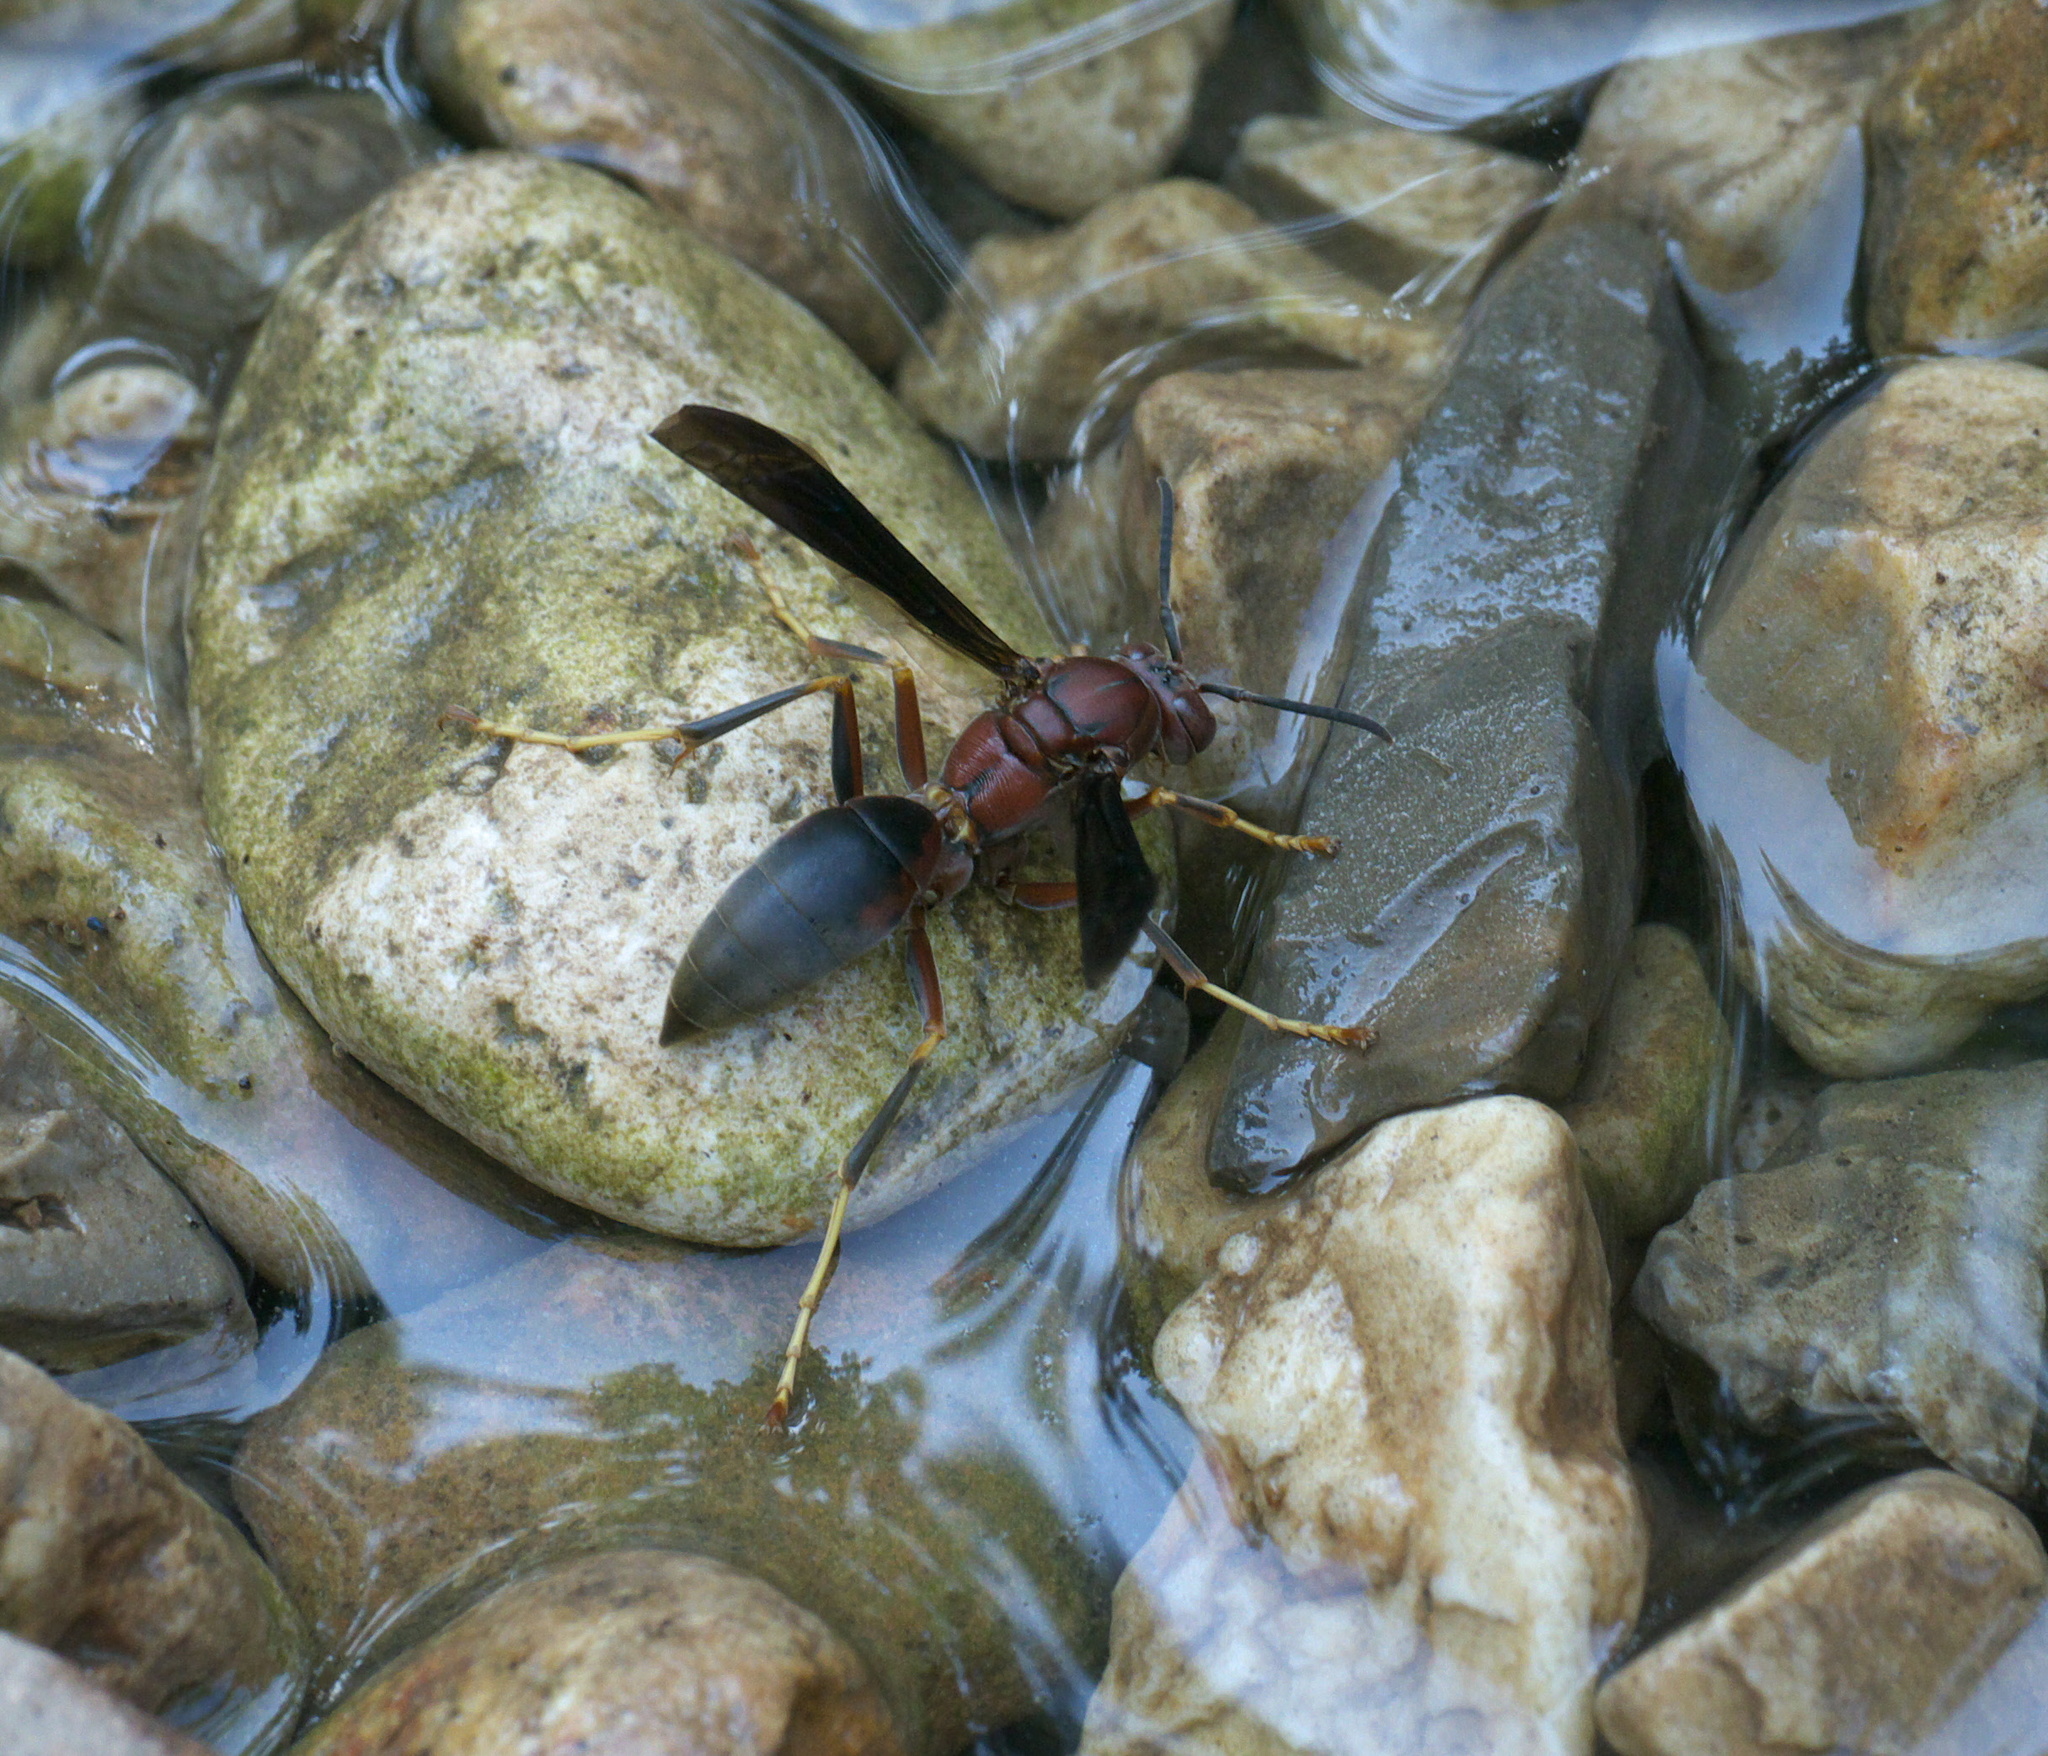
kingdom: Animalia
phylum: Arthropoda
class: Insecta
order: Hymenoptera
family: Eumenidae
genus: Polistes
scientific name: Polistes metricus
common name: Metric paper wasp
